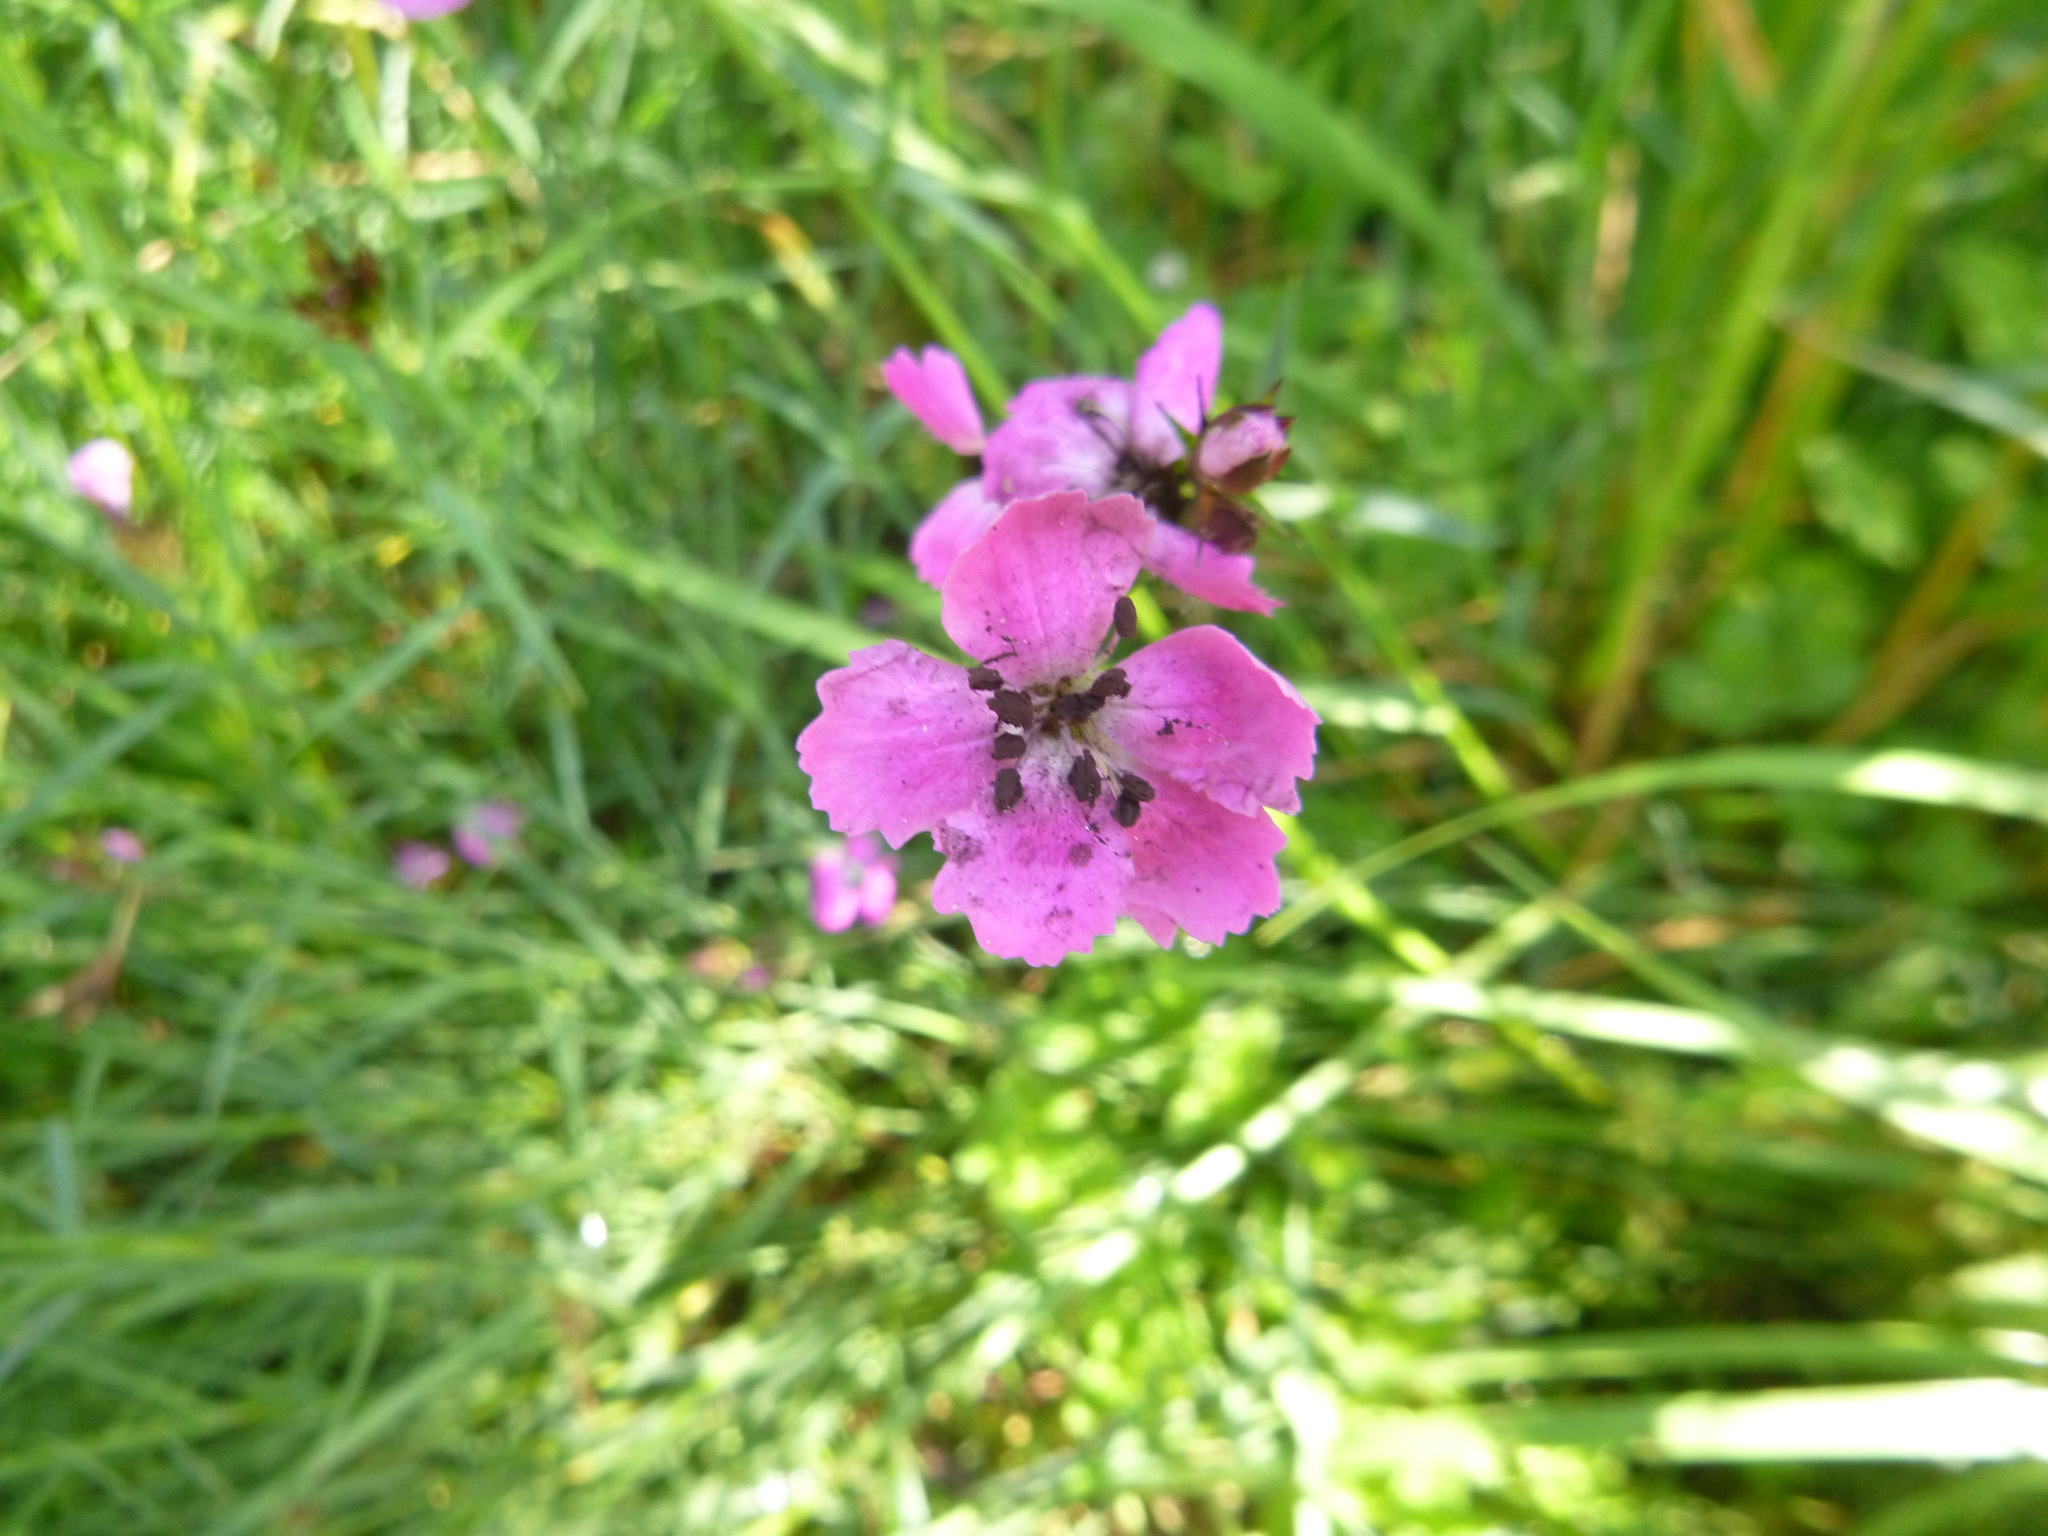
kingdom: Fungi
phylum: Basidiomycota
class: Microbotryomycetes
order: Microbotryales
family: Microbotryaceae
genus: Microbotryum
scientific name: Microbotryum dianthorum
